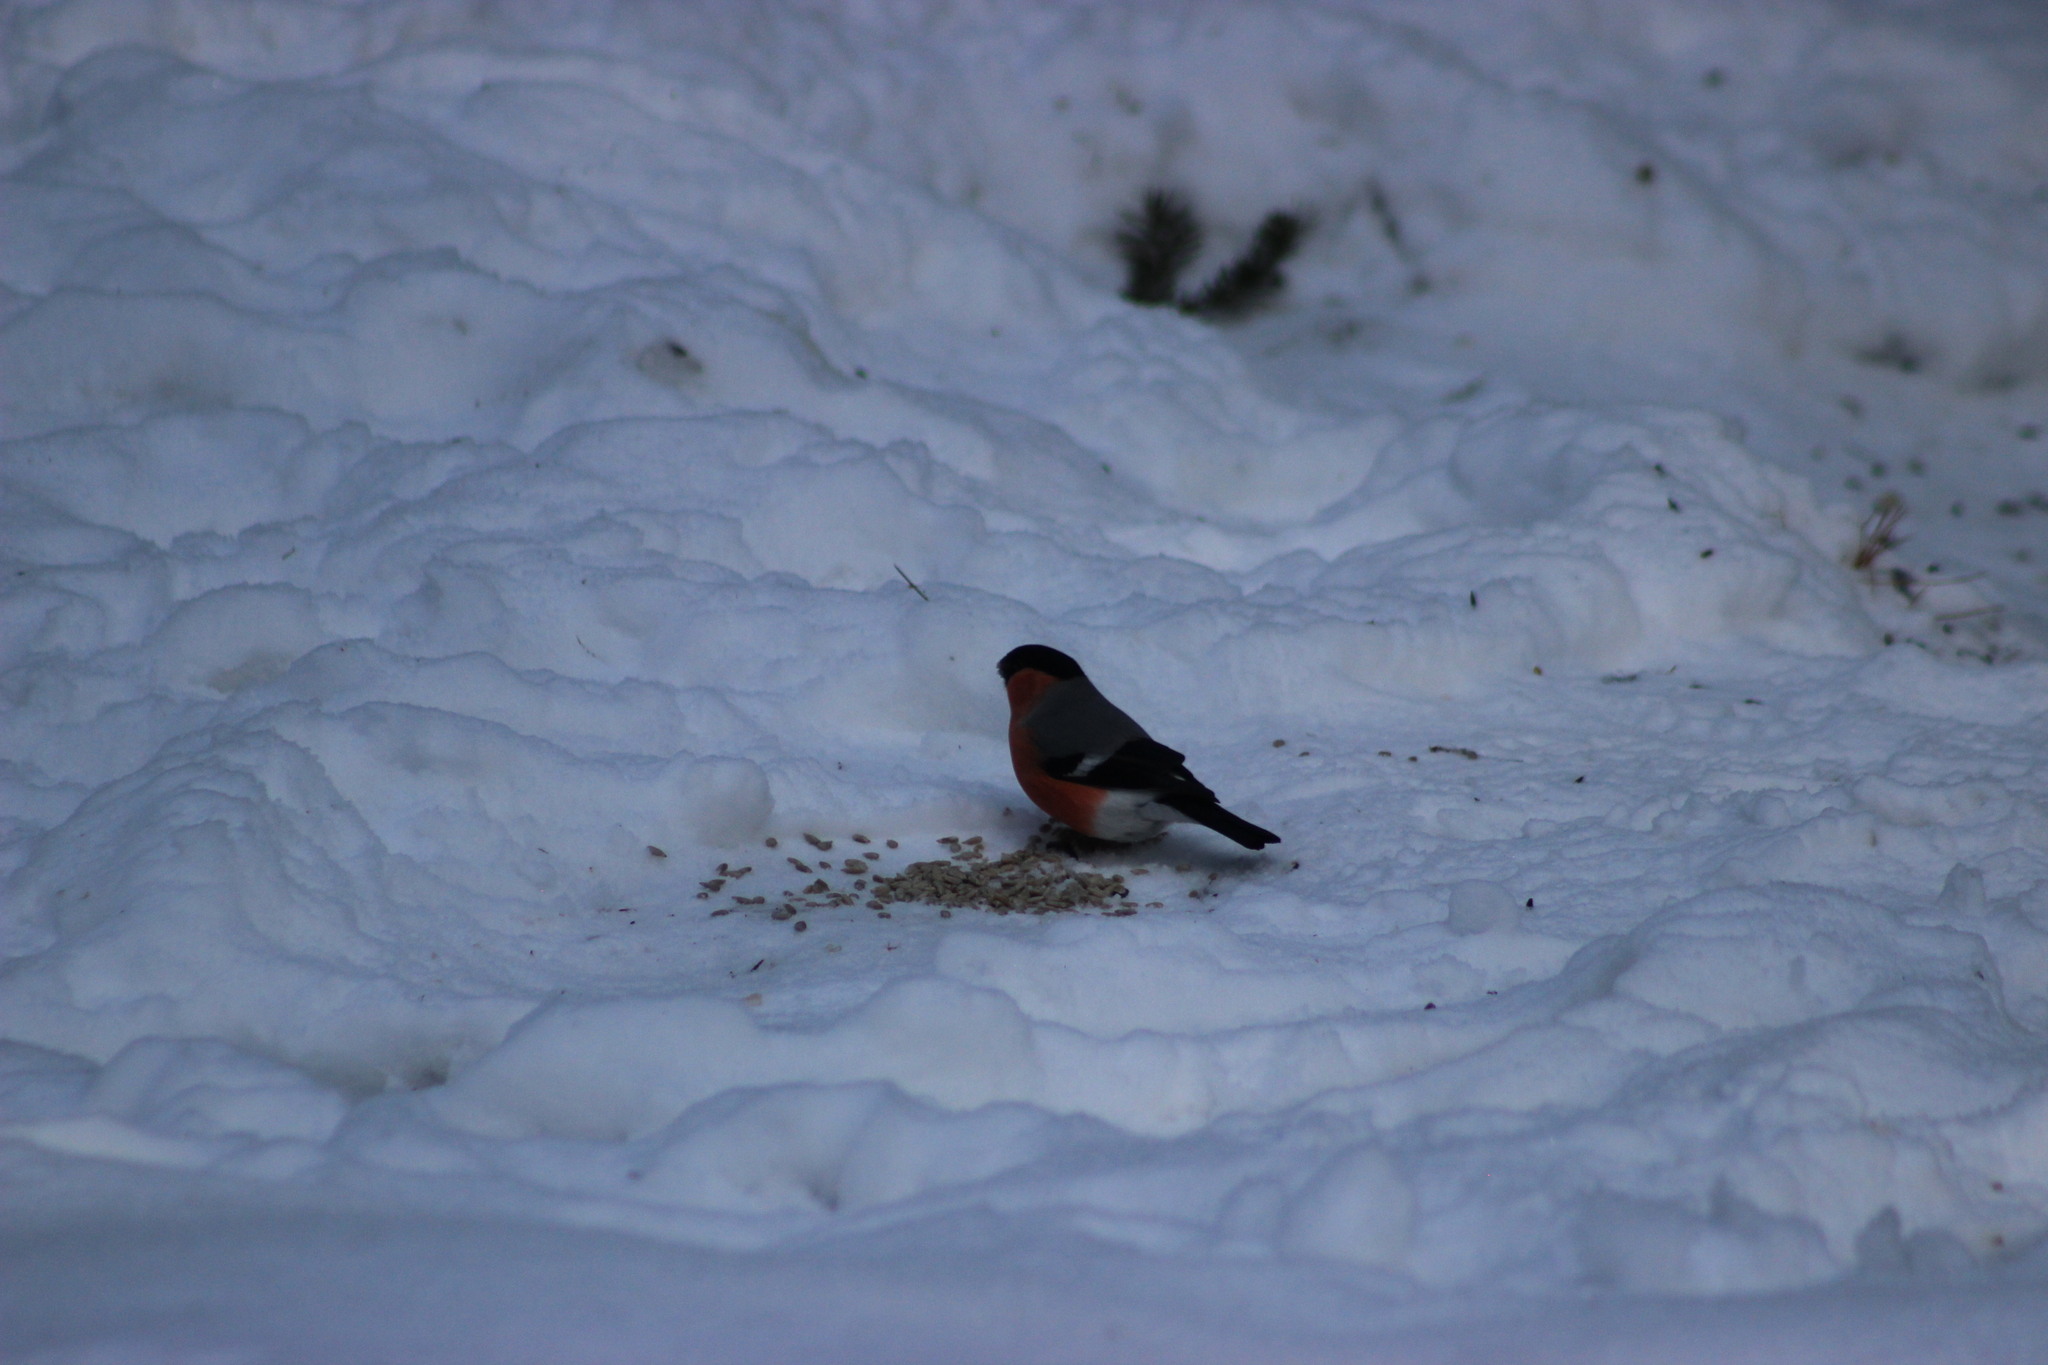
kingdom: Animalia
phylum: Chordata
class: Aves
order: Passeriformes
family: Fringillidae
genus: Pyrrhula
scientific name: Pyrrhula pyrrhula
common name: Eurasian bullfinch
